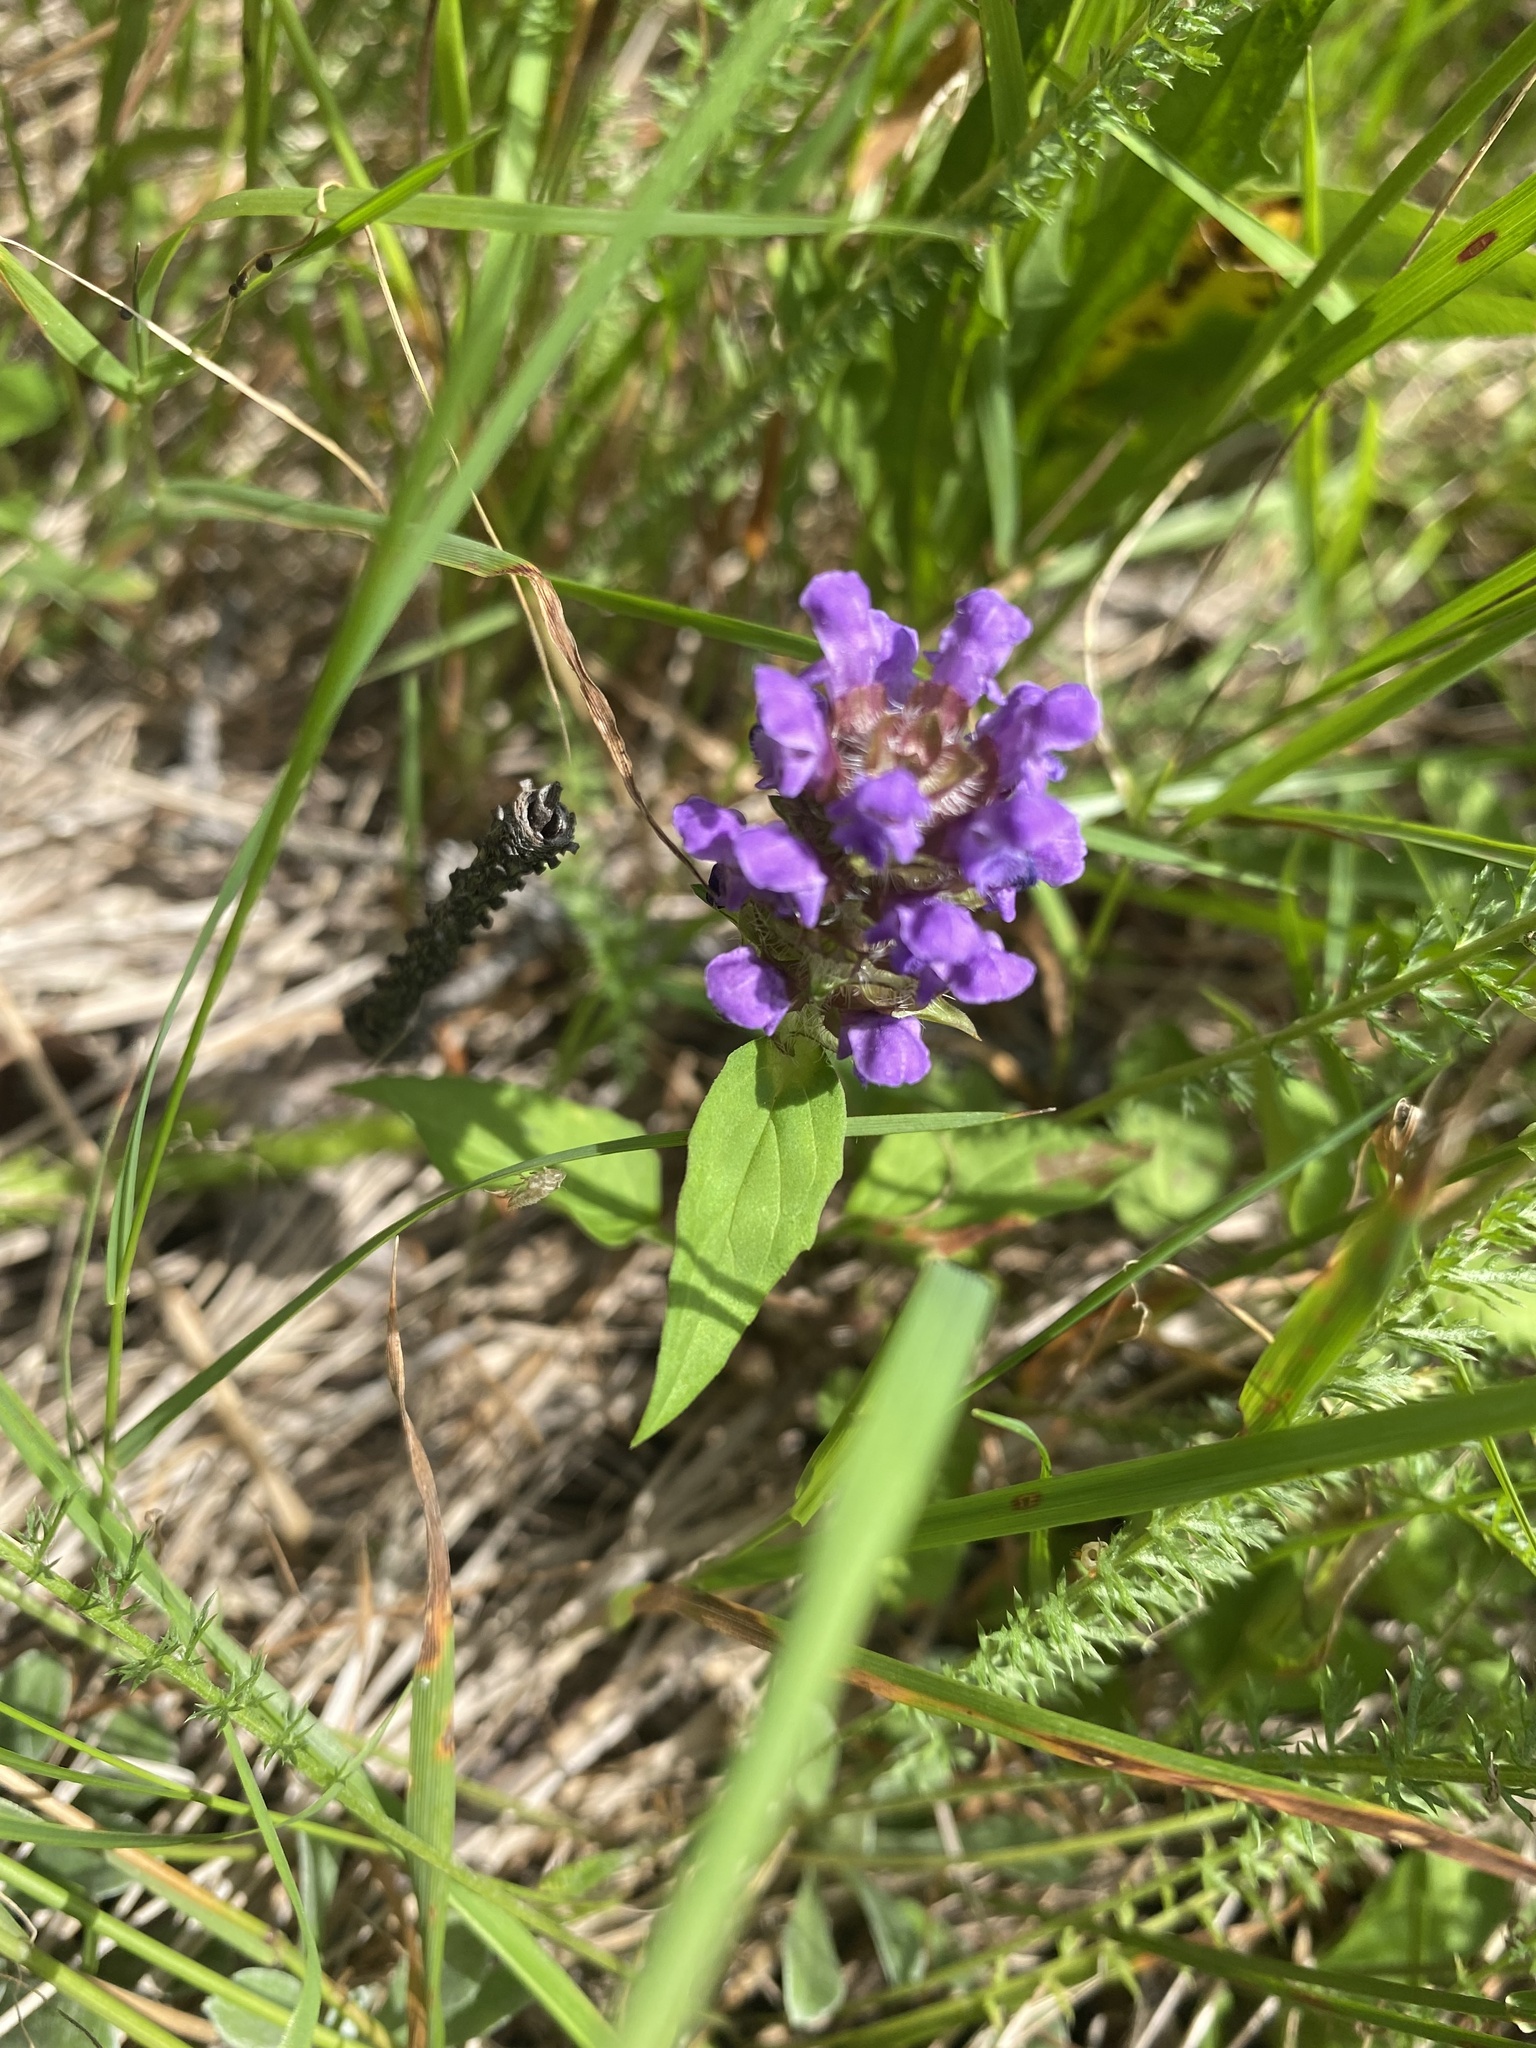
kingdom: Plantae
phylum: Tracheophyta
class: Magnoliopsida
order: Lamiales
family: Lamiaceae
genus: Prunella
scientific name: Prunella vulgaris
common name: Heal-all
